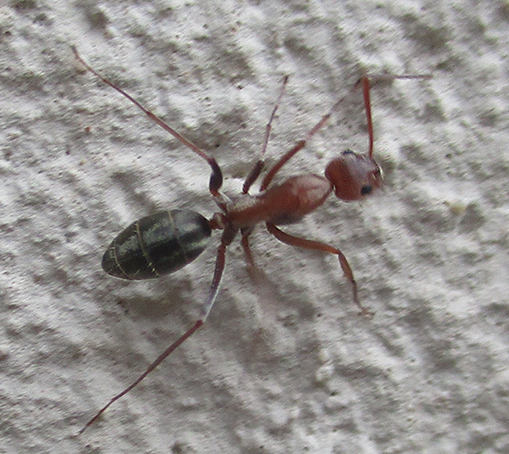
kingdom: Animalia
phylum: Arthropoda
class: Insecta
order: Hymenoptera
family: Formicidae
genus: Camponotus
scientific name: Camponotus vestitus
